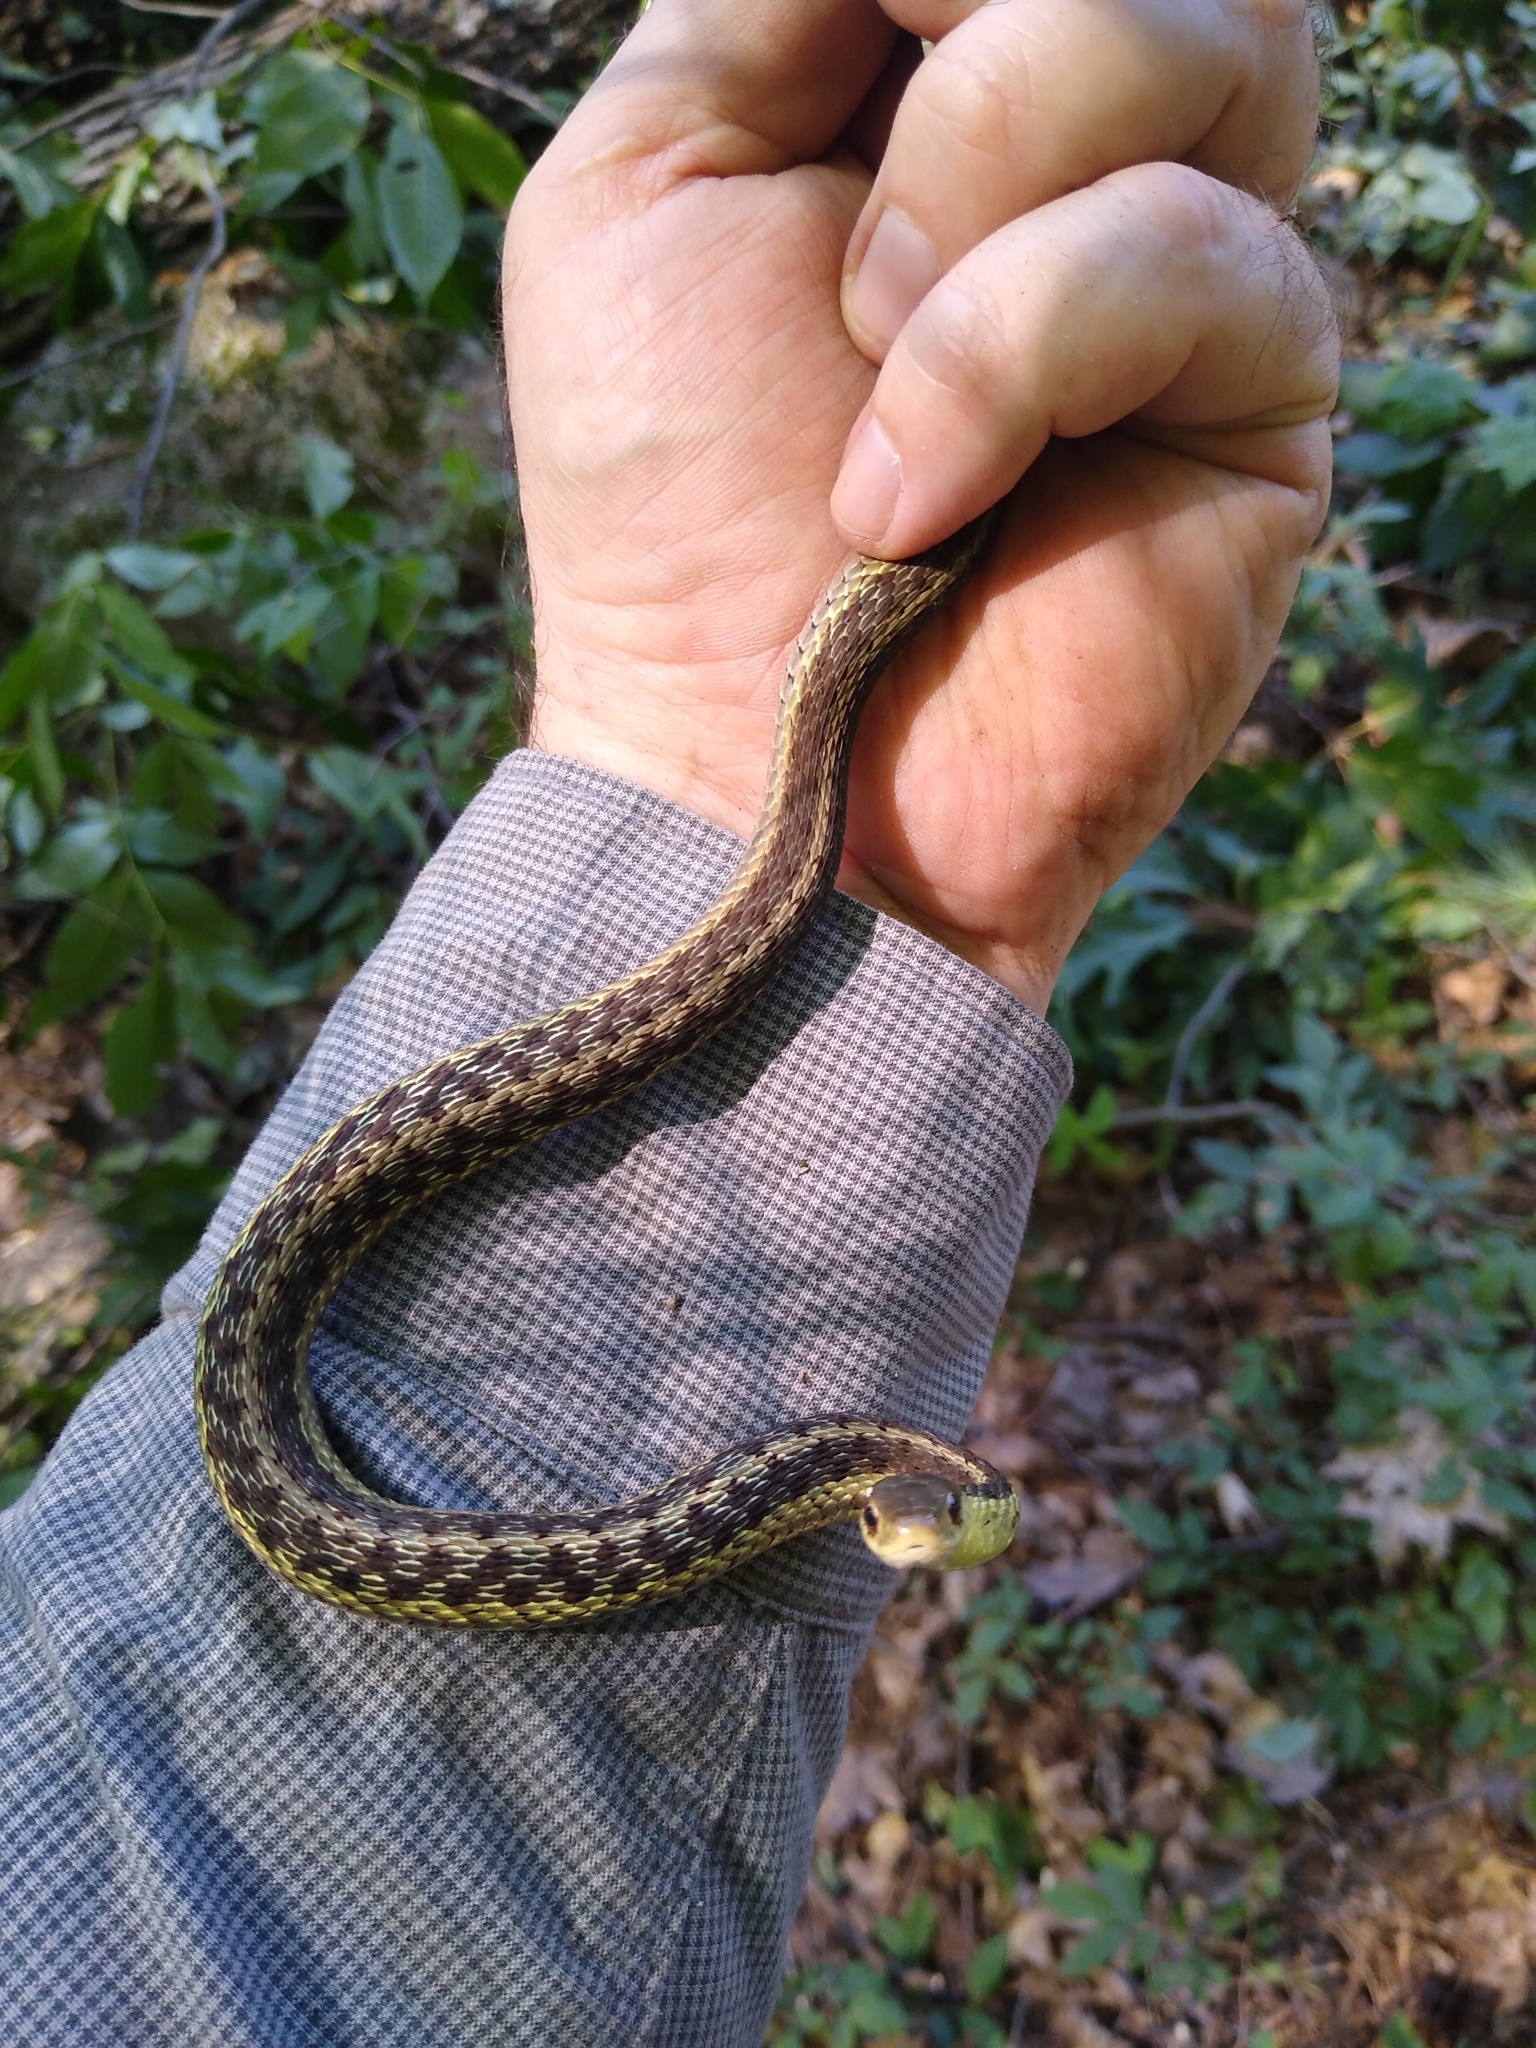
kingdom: Animalia
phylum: Chordata
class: Squamata
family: Colubridae
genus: Thamnophis
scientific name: Thamnophis sirtalis
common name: Common garter snake
